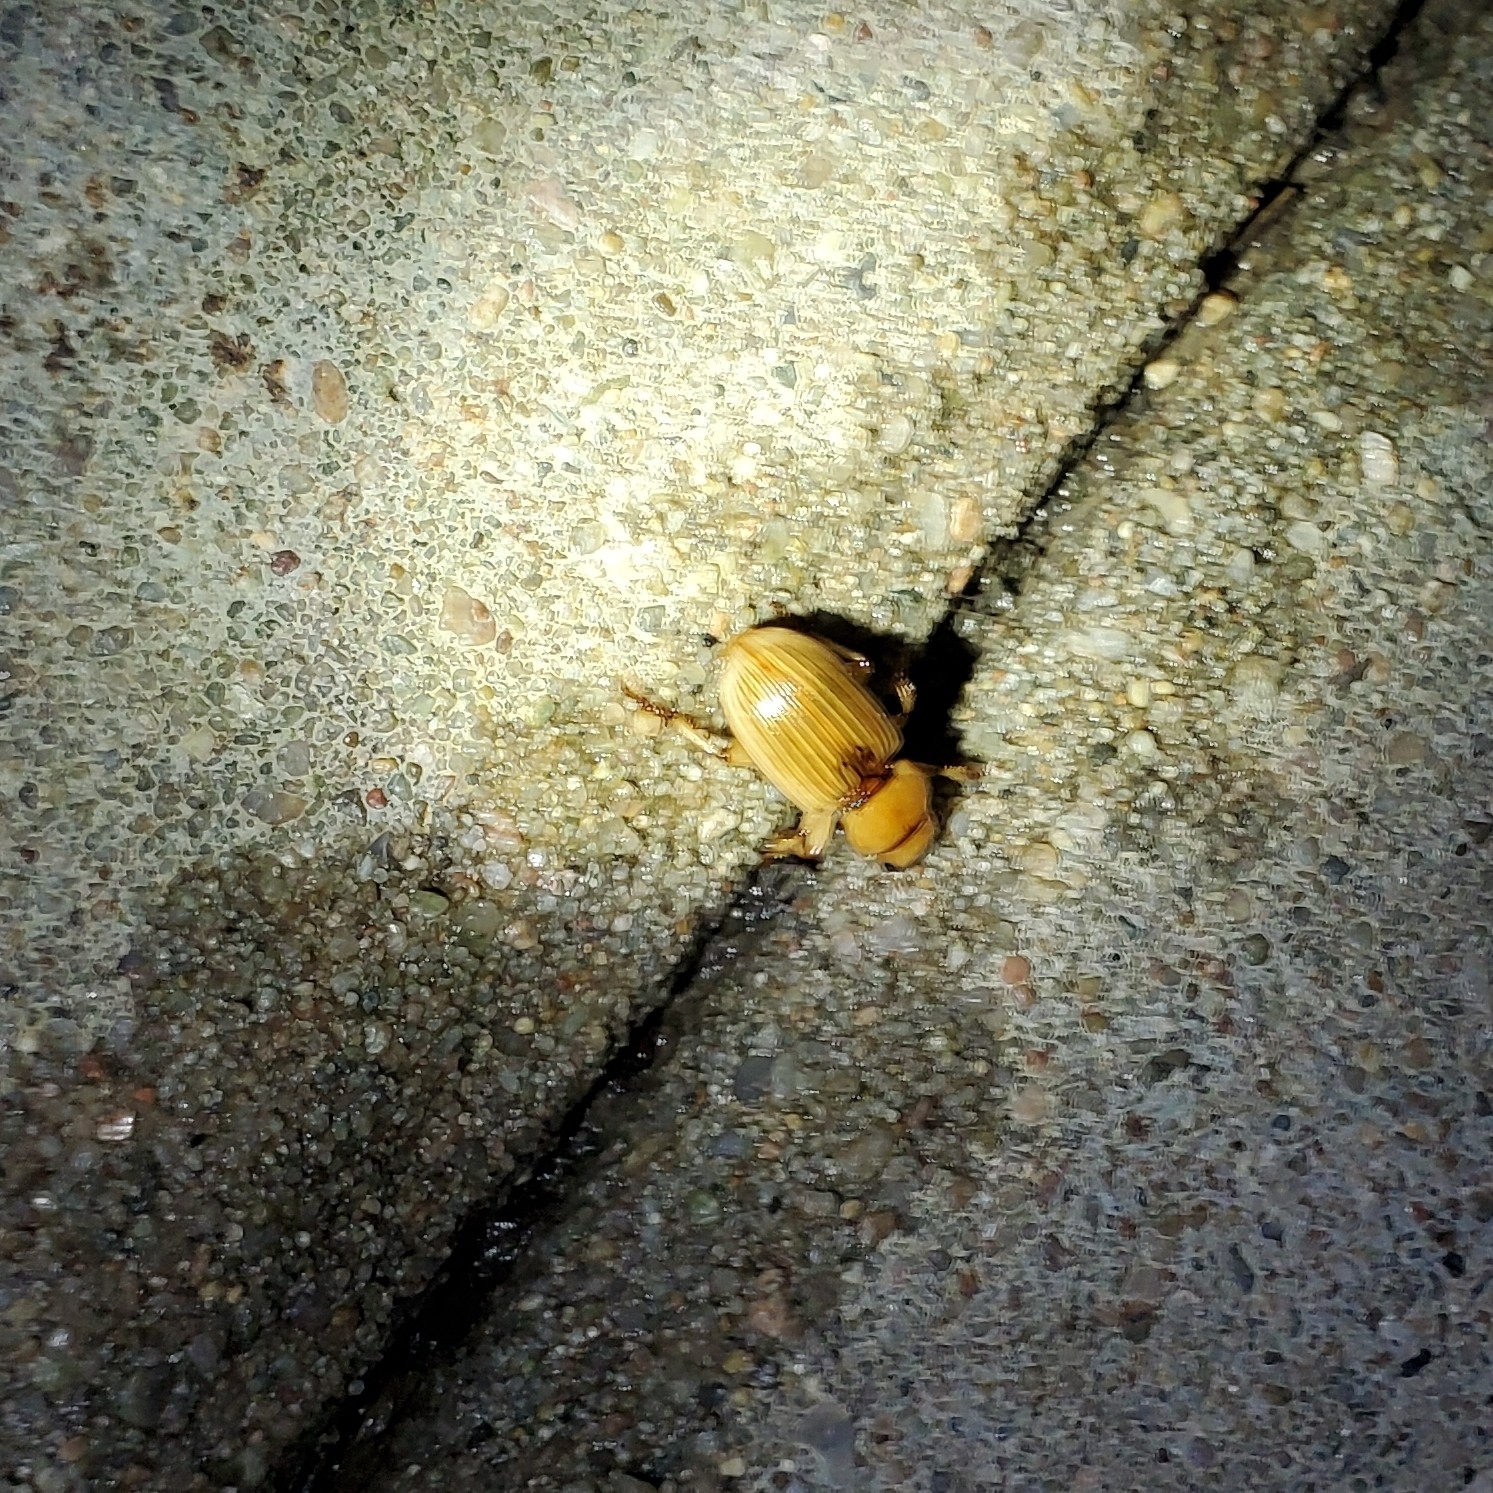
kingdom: Animalia
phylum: Arthropoda
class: Insecta
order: Coleoptera
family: Carabidae
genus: Geopinus
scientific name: Geopinus incrassatus
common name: Homely geopinus
